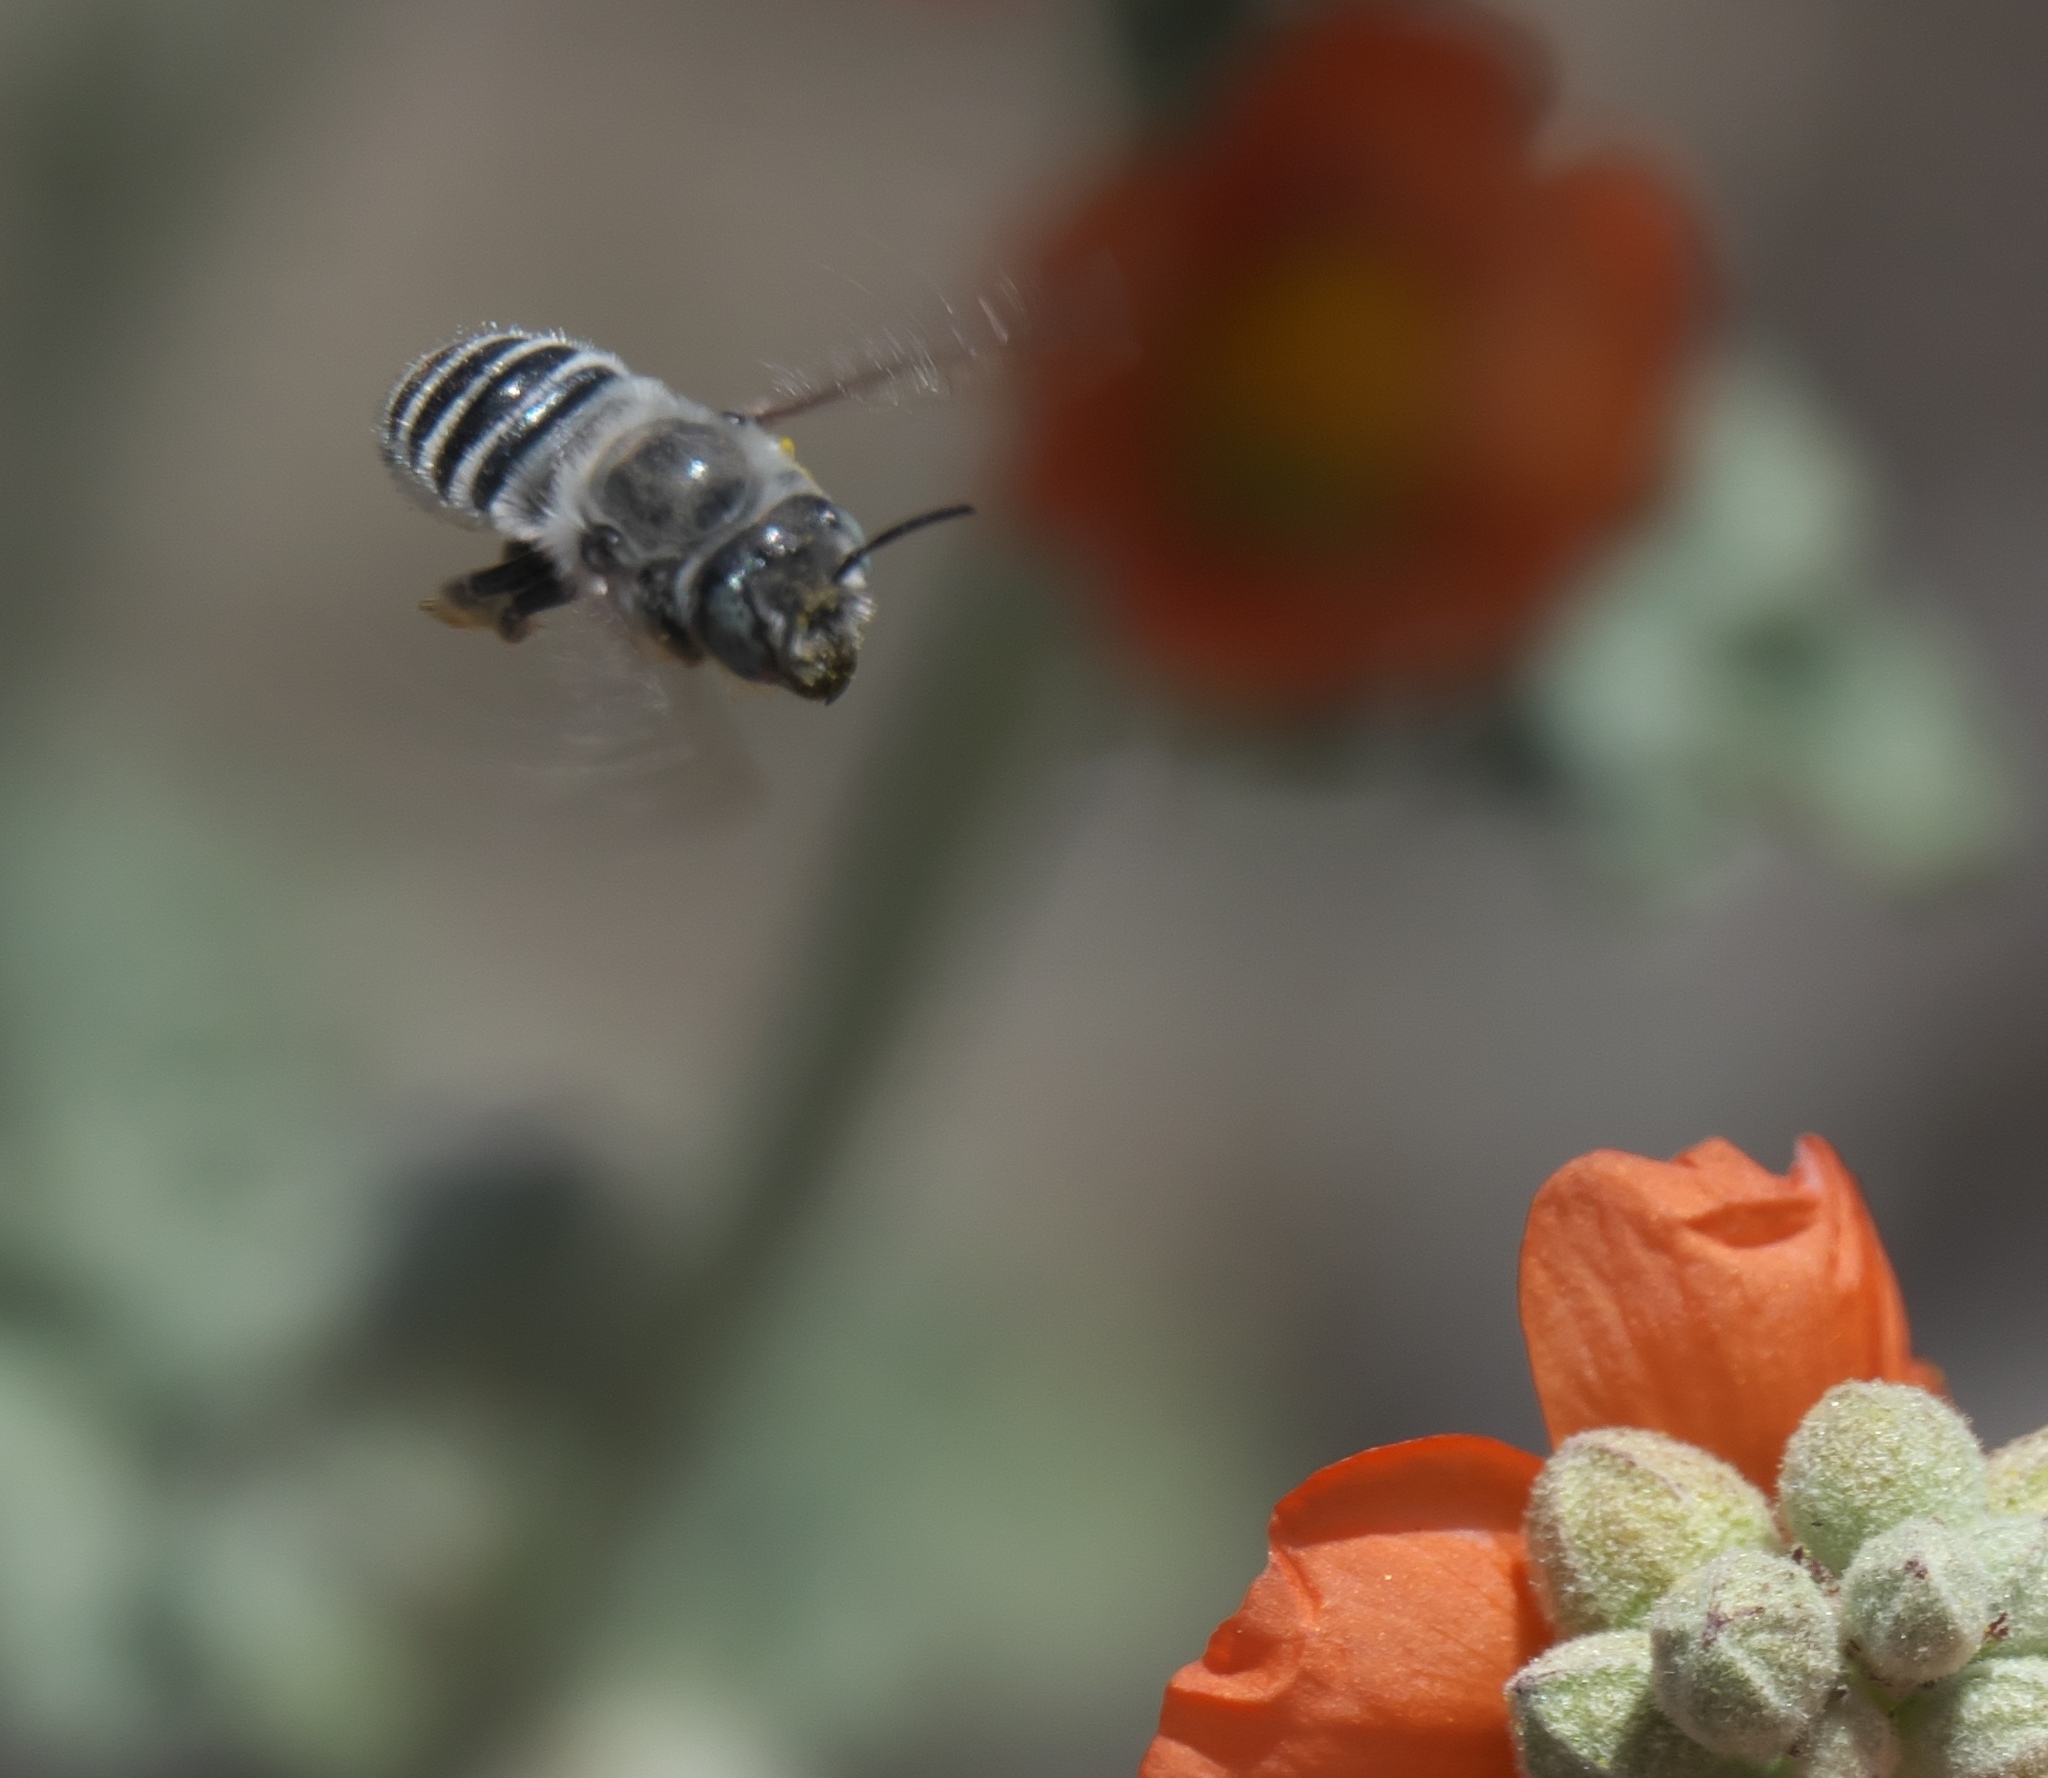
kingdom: Animalia
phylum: Arthropoda
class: Insecta
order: Hymenoptera
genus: Megachiloides
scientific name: Megachiloides
